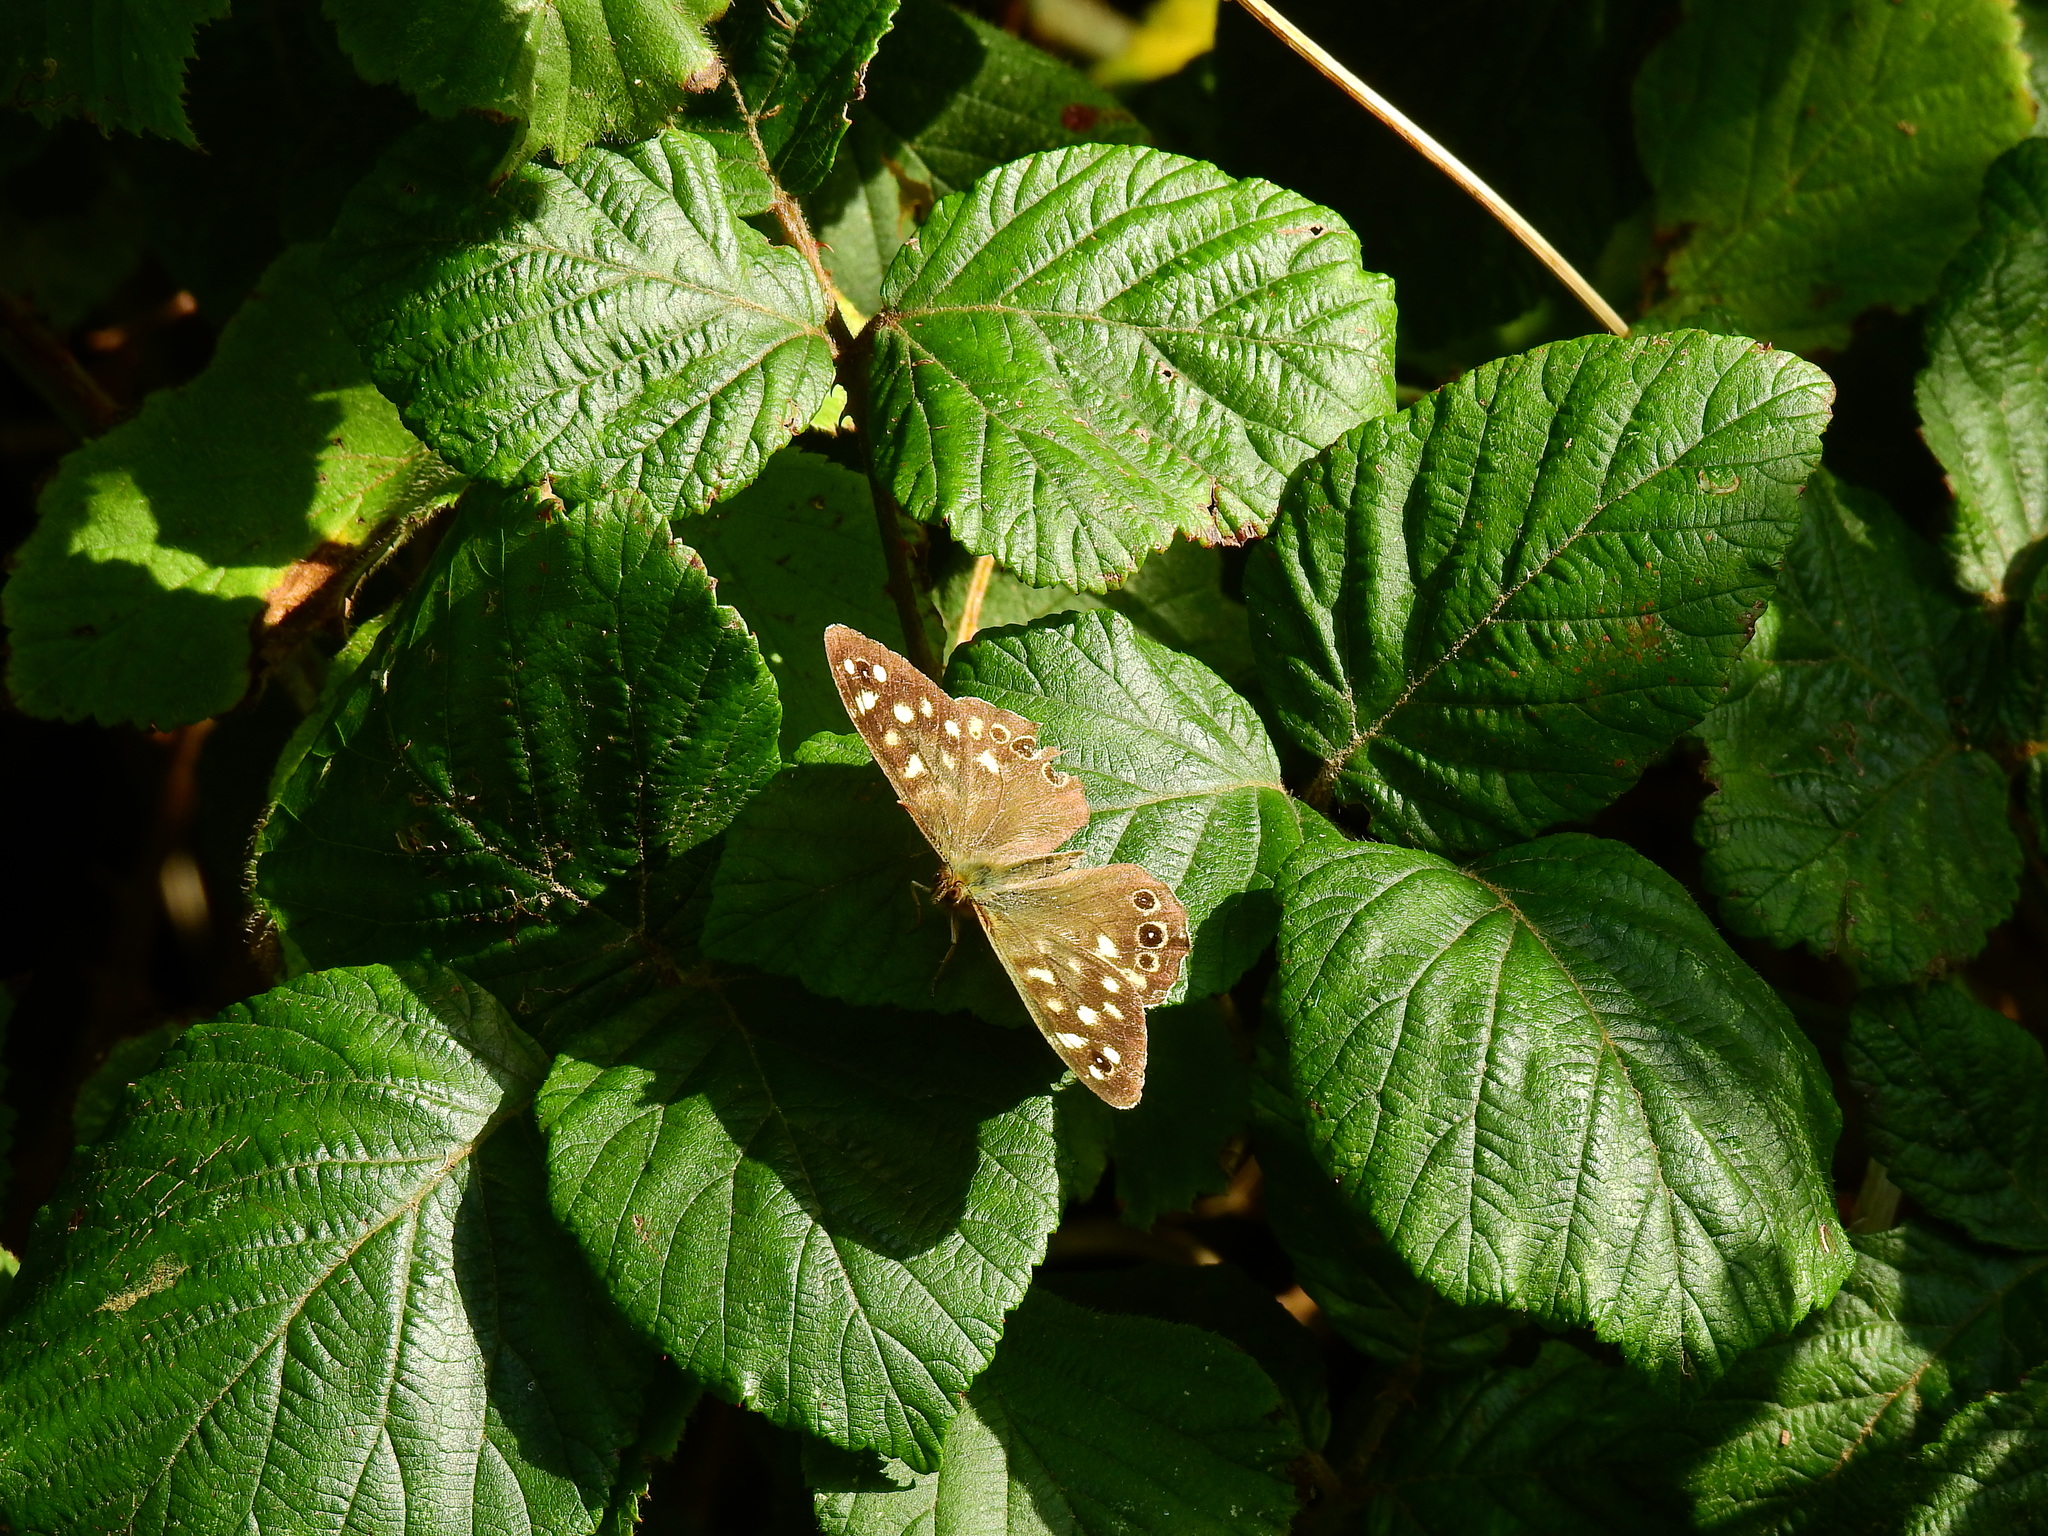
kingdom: Animalia
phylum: Arthropoda
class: Insecta
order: Lepidoptera
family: Nymphalidae
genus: Pararge
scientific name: Pararge aegeria
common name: Speckled wood
